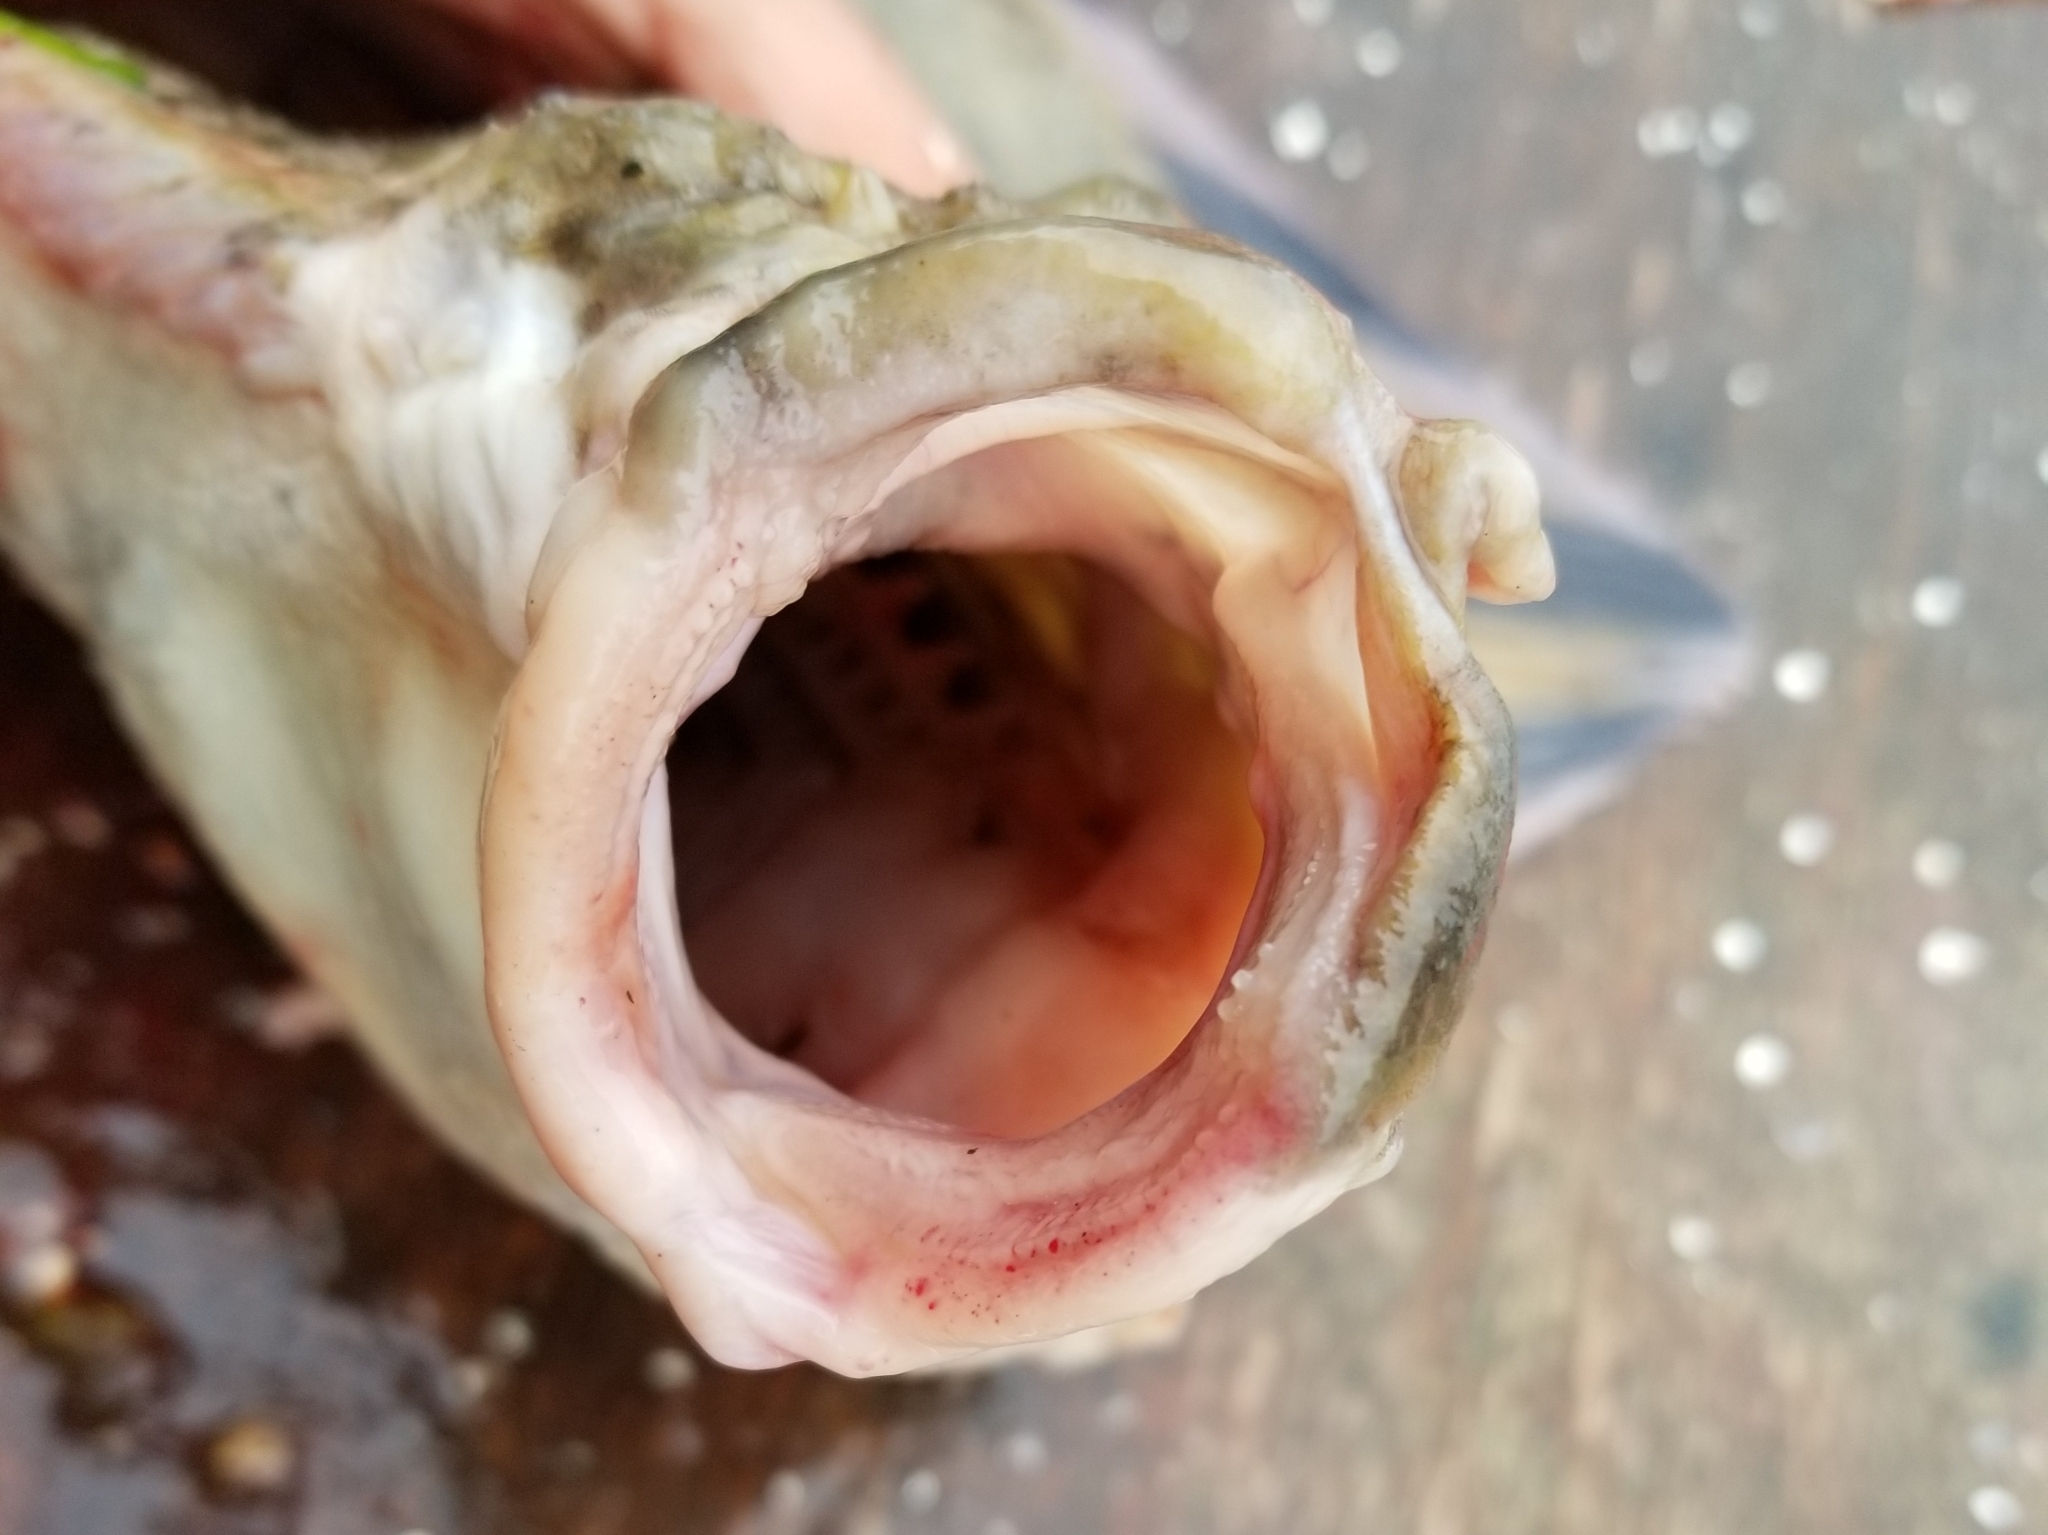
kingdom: Animalia
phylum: Chordata
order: Pleuronectiformes
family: Pleuronectidae
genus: Platichthys
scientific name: Platichthys stellatus
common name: Starry flounder
